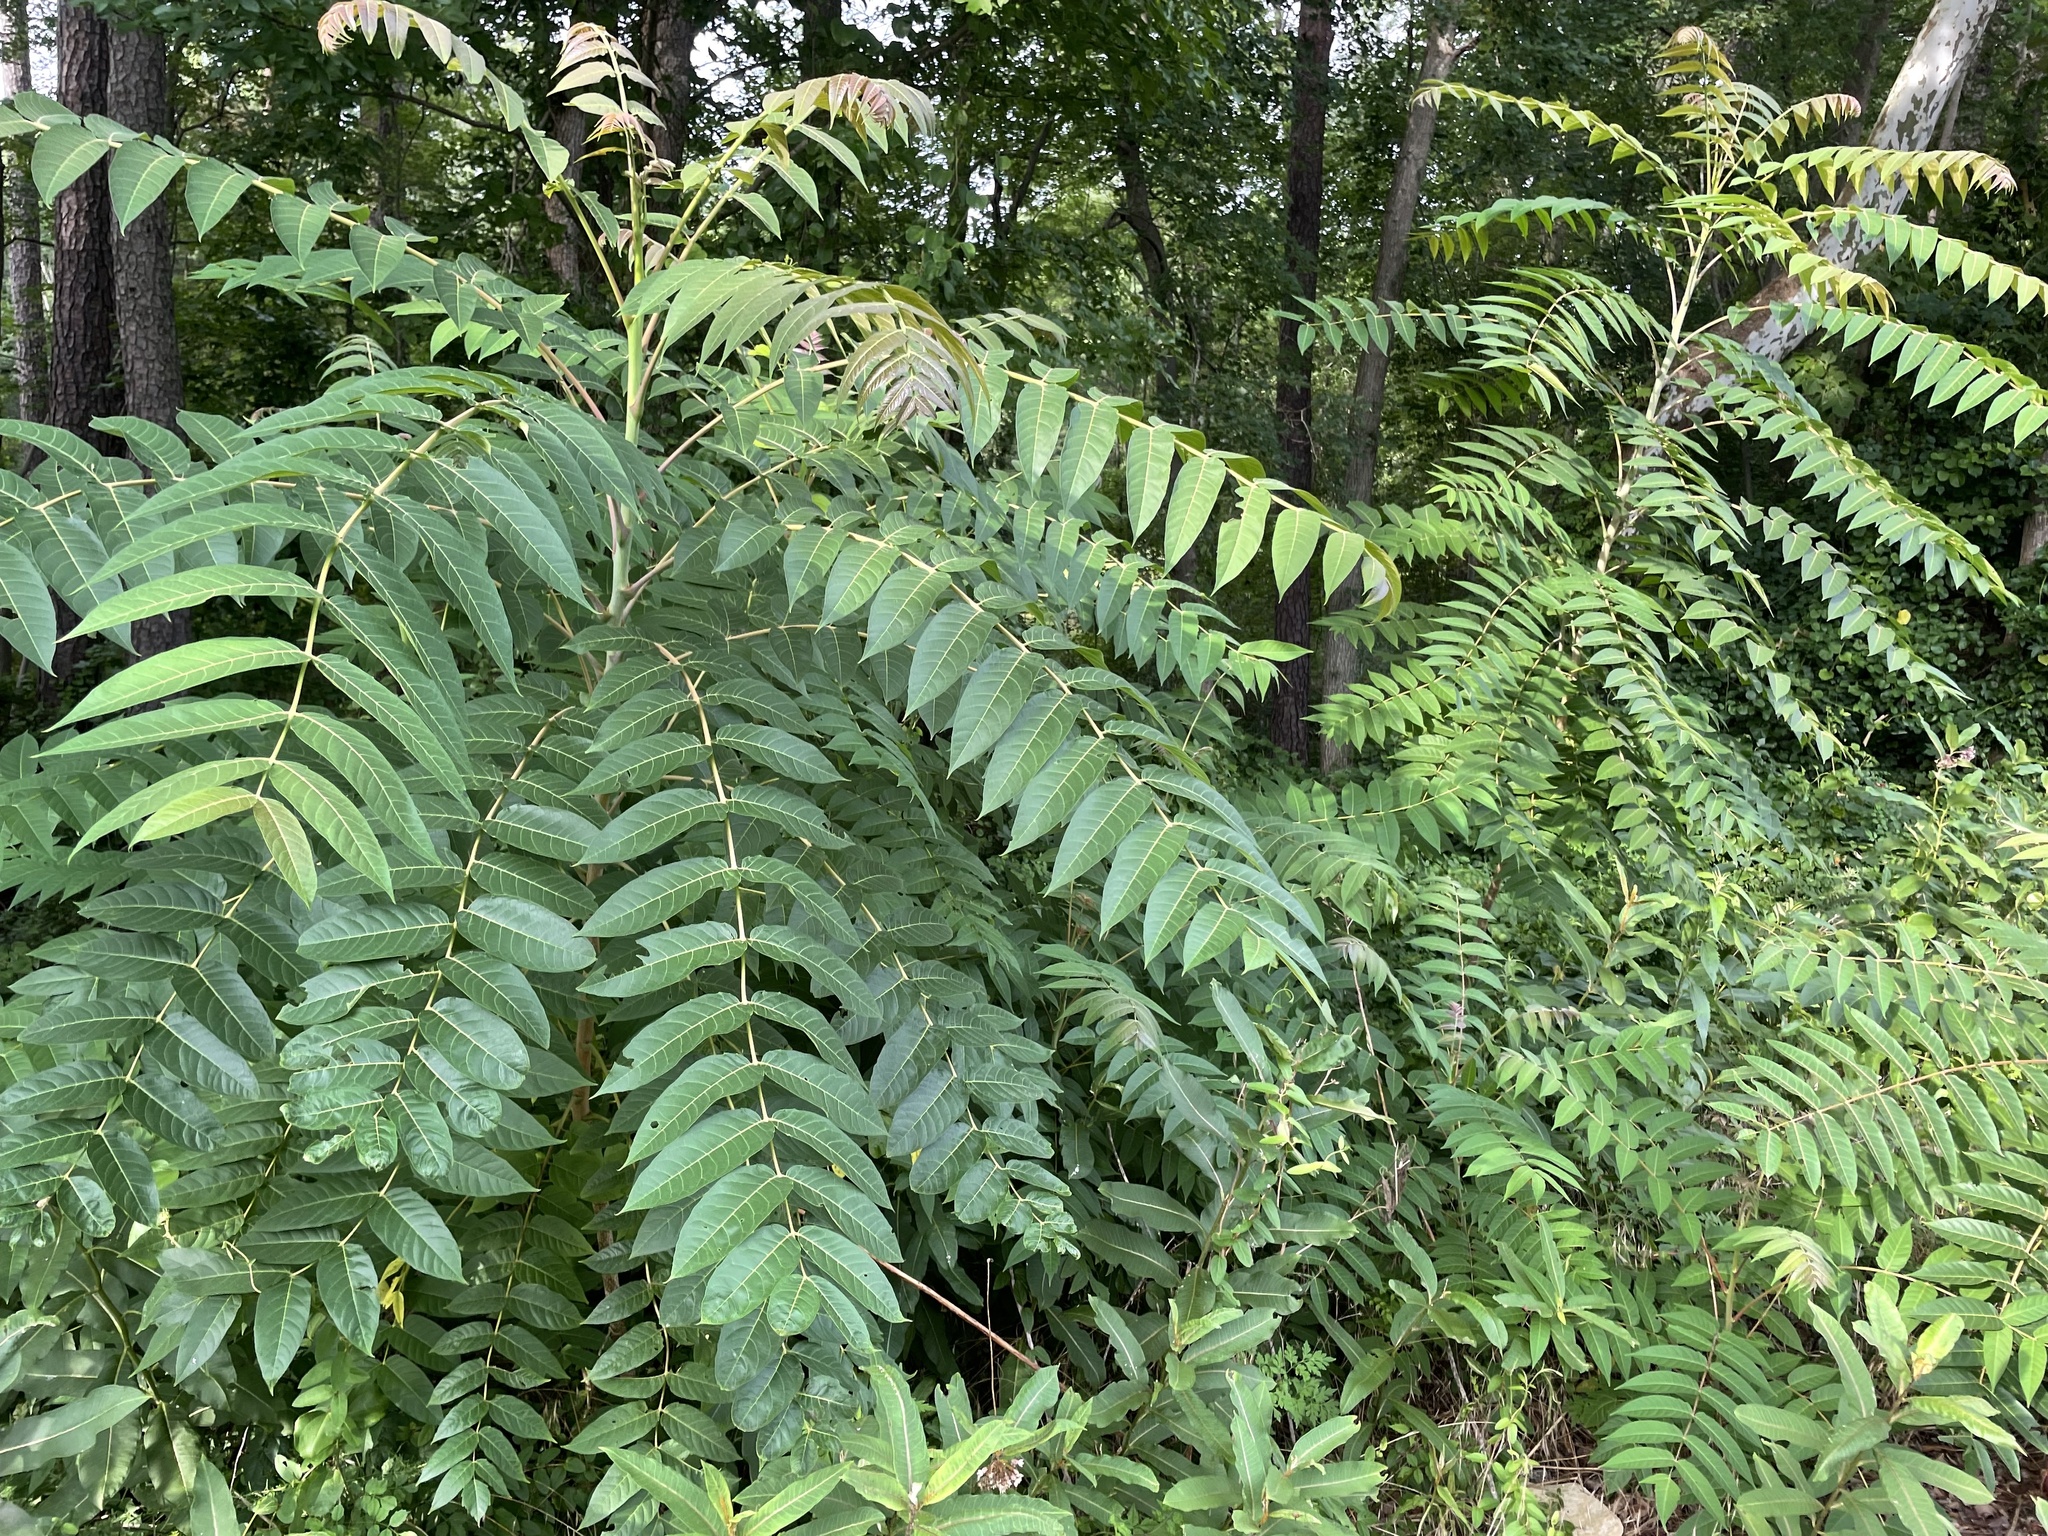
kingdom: Plantae
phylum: Tracheophyta
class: Magnoliopsida
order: Sapindales
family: Simaroubaceae
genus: Ailanthus
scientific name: Ailanthus altissima
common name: Tree-of-heaven
